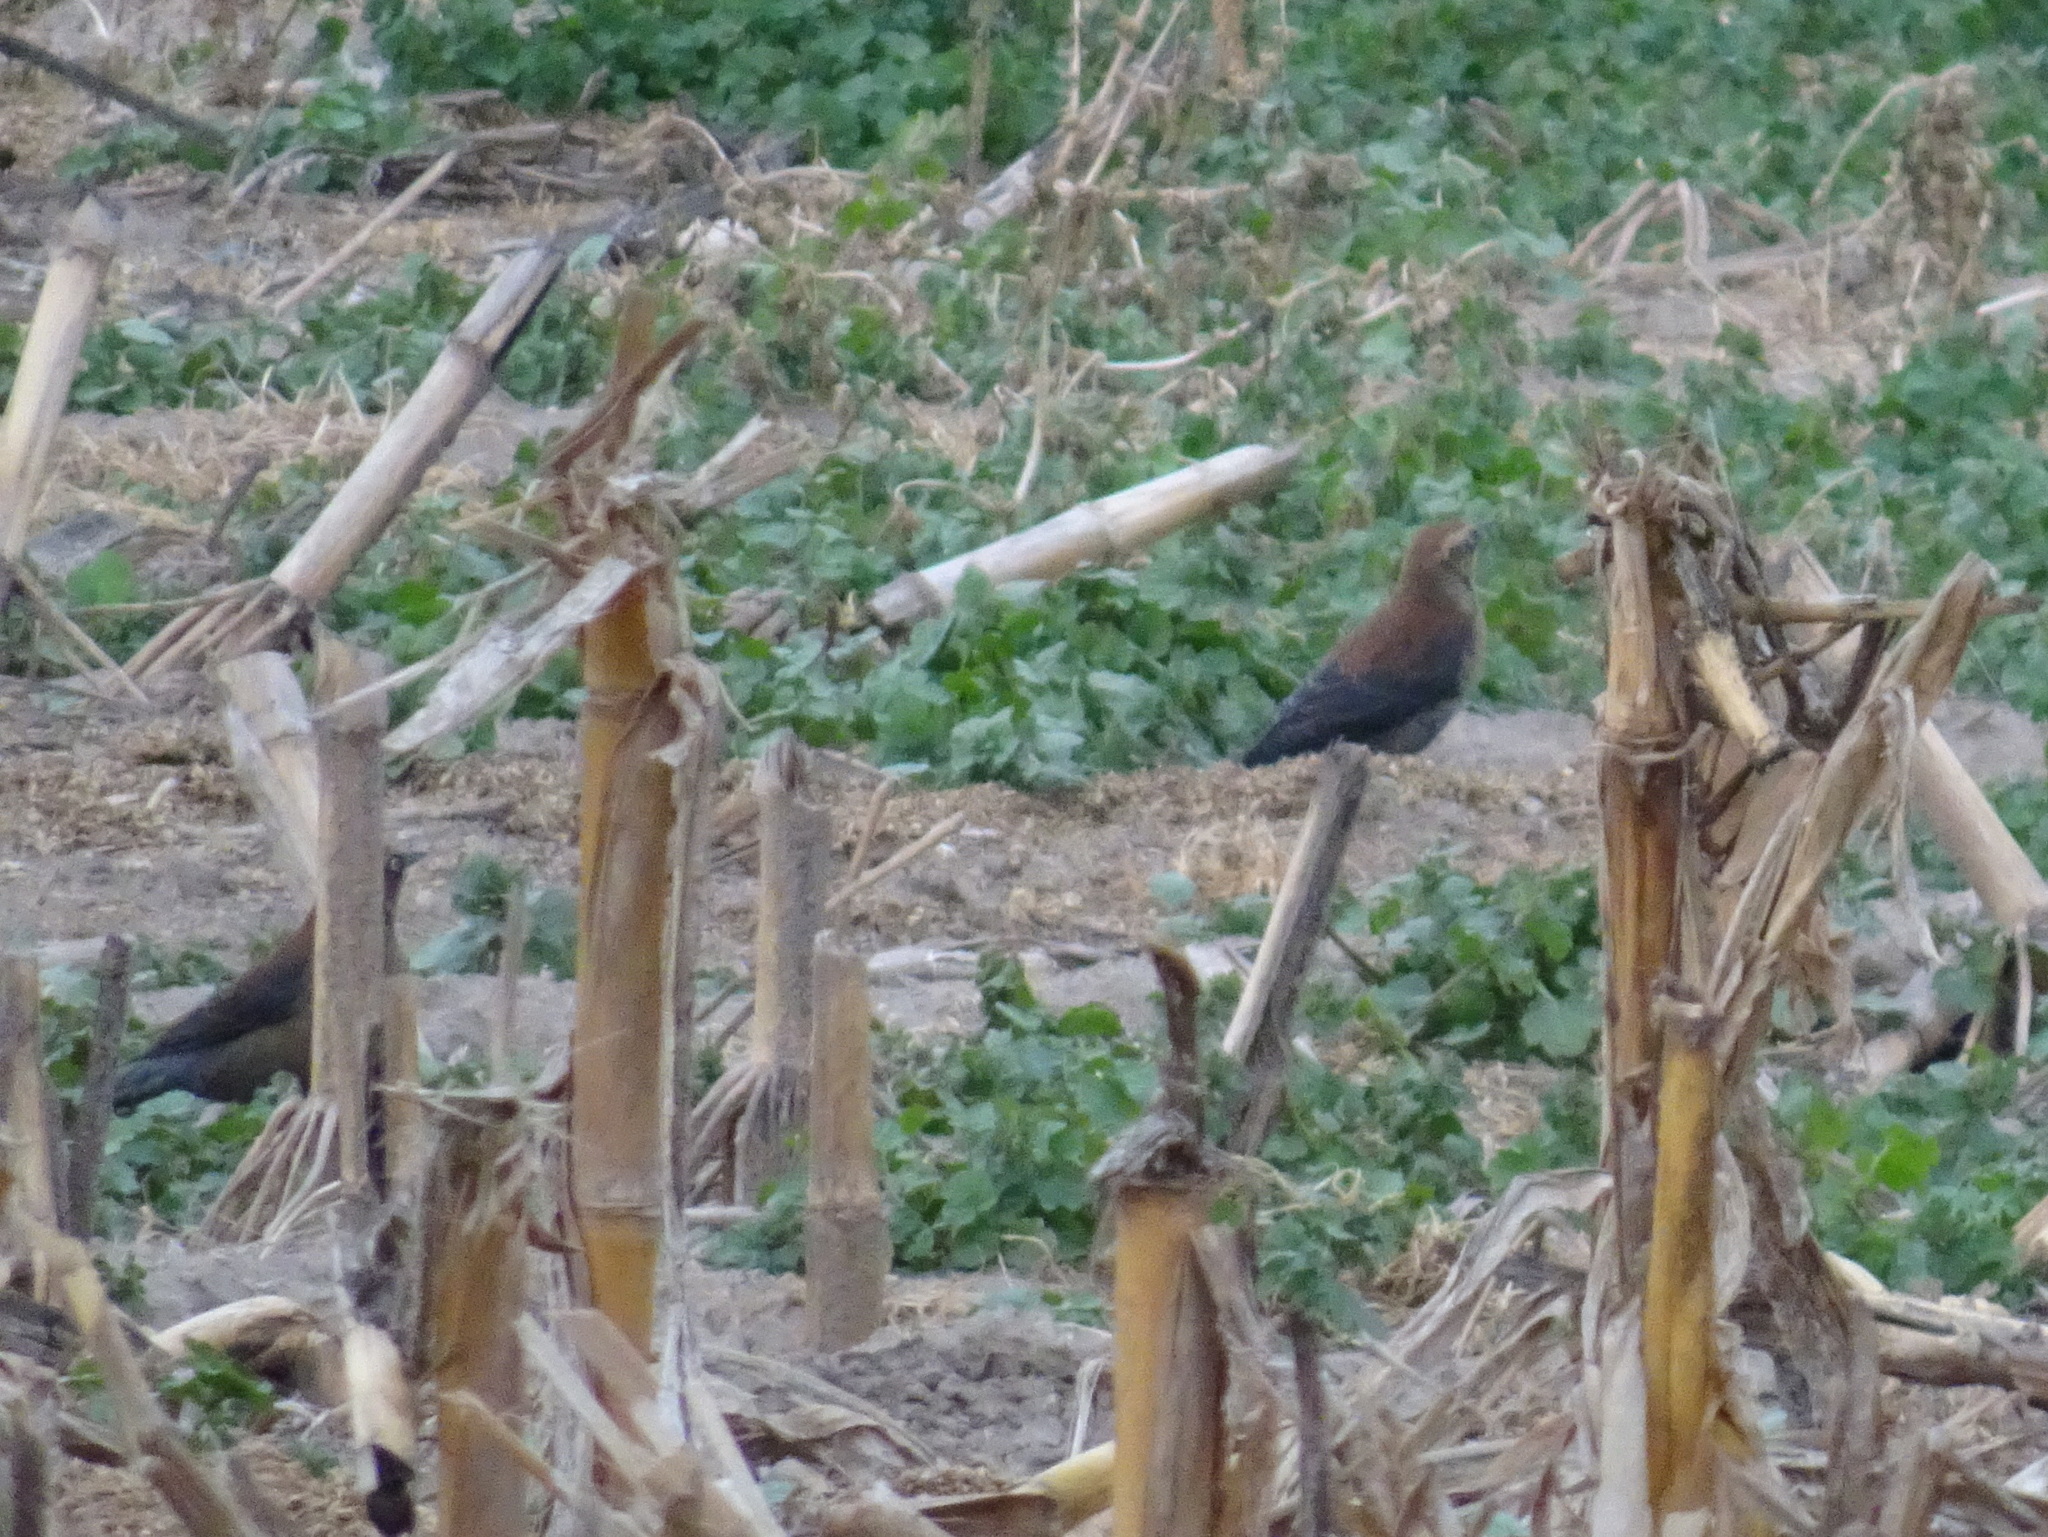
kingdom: Animalia
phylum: Chordata
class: Aves
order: Passeriformes
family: Icteridae
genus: Euphagus
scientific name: Euphagus carolinus
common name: Rusty blackbird
